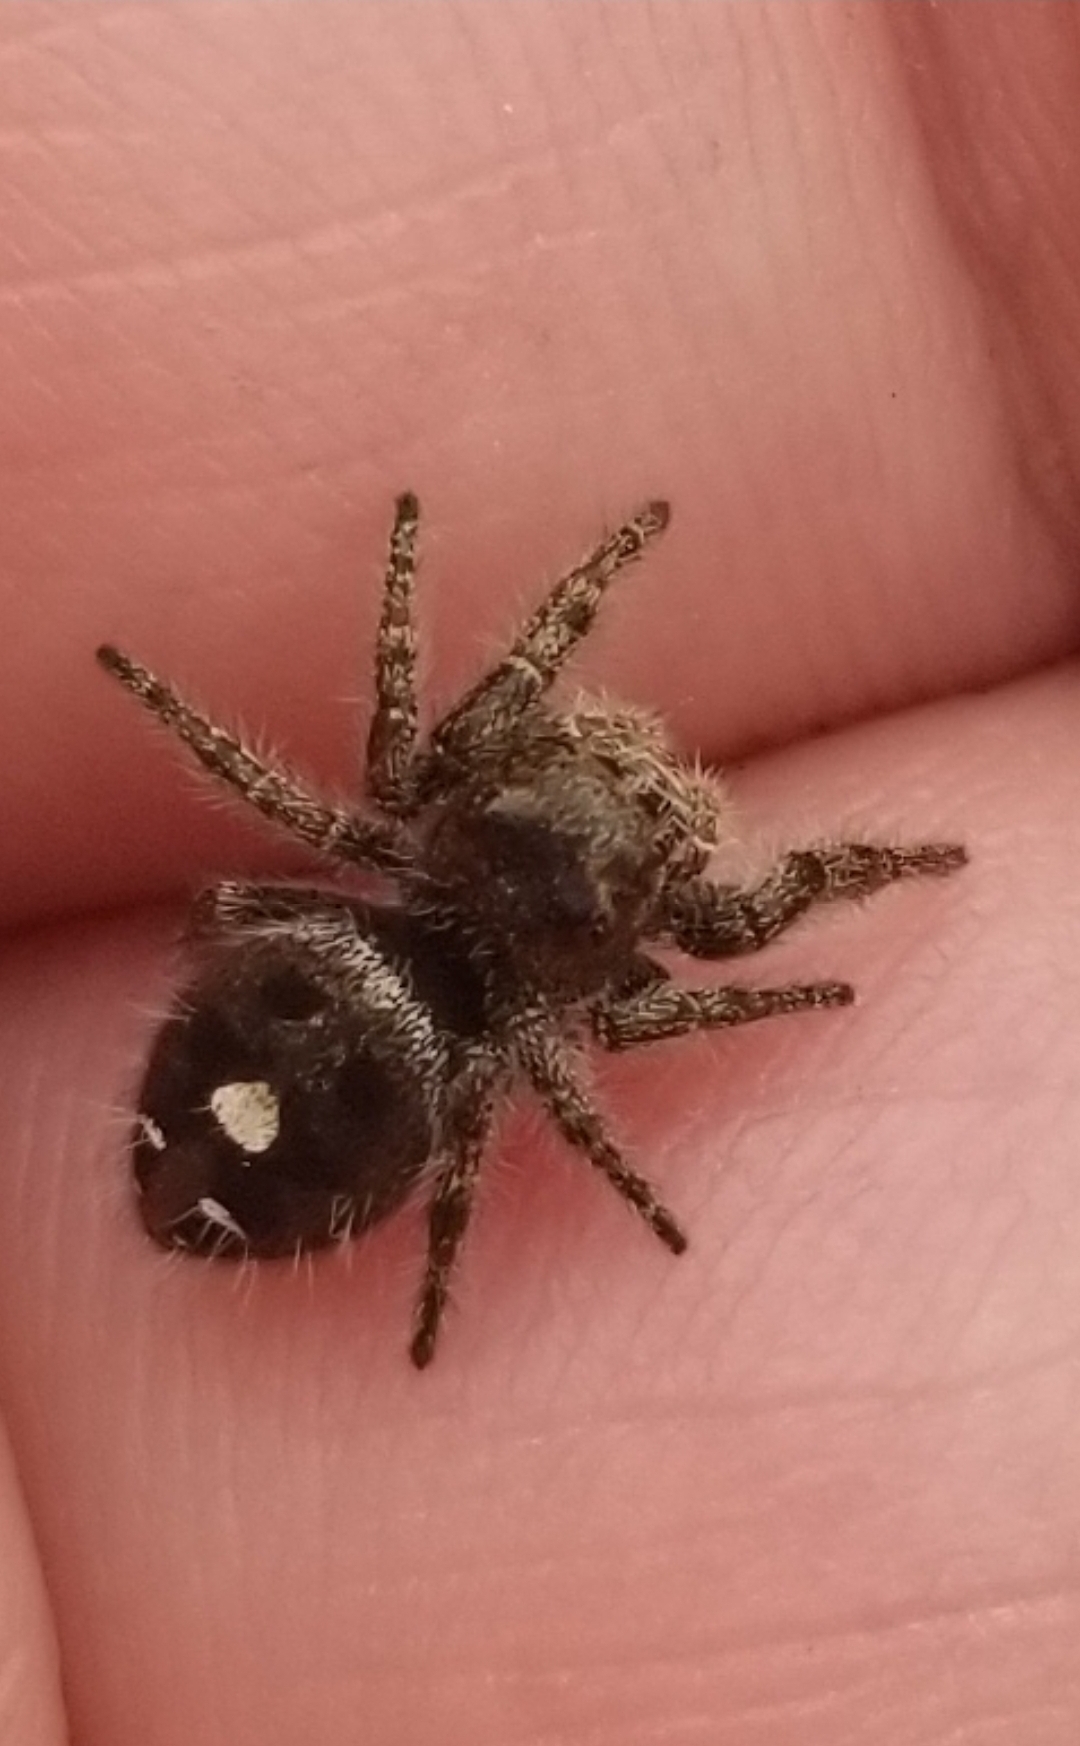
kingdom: Animalia
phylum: Arthropoda
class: Arachnida
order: Araneae
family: Salticidae
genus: Phidippus
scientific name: Phidippus audax
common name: Bold jumper
